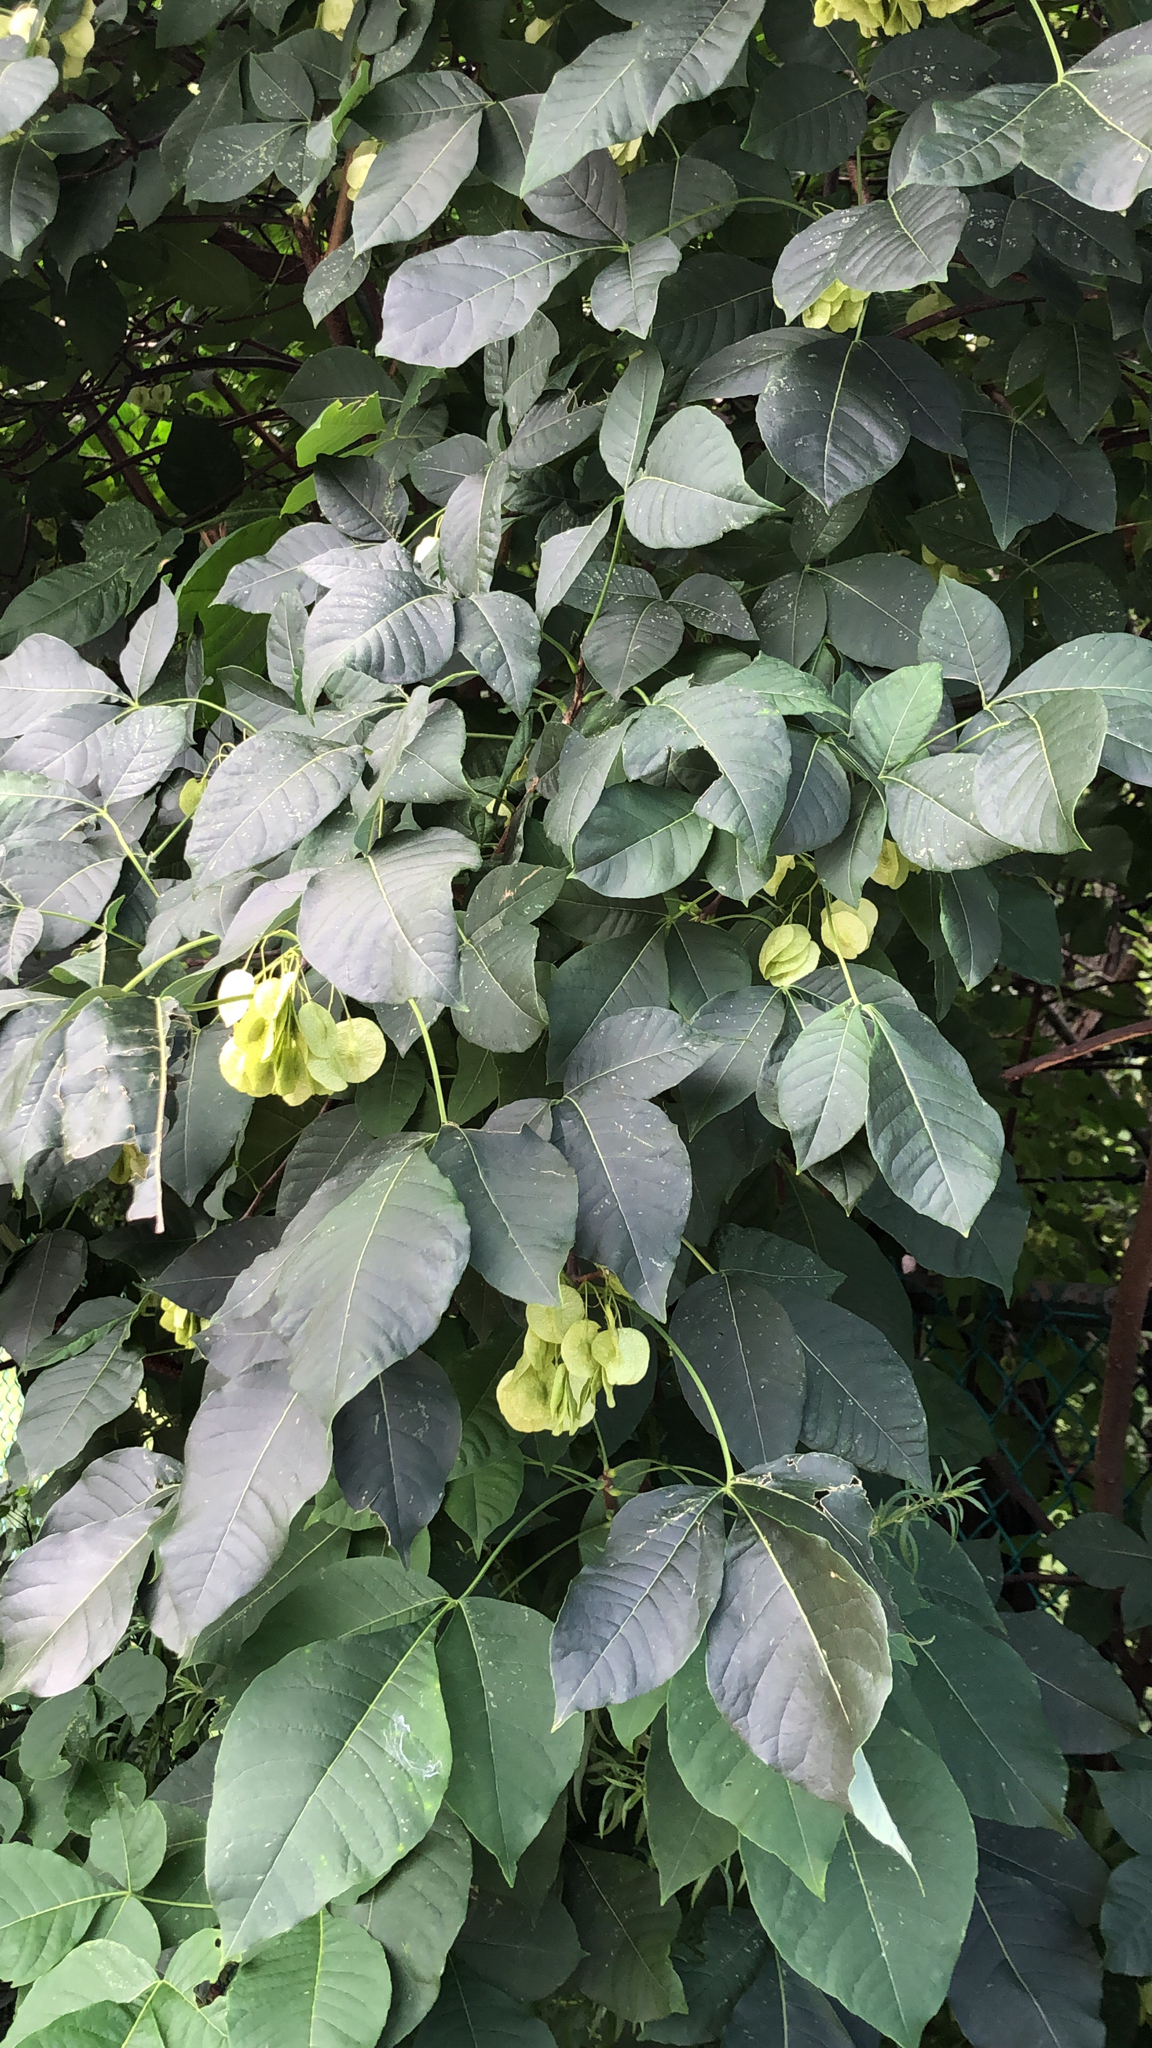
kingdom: Plantae
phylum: Tracheophyta
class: Magnoliopsida
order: Sapindales
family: Rutaceae
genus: Ptelea
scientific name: Ptelea trifoliata
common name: Common hop-tree
